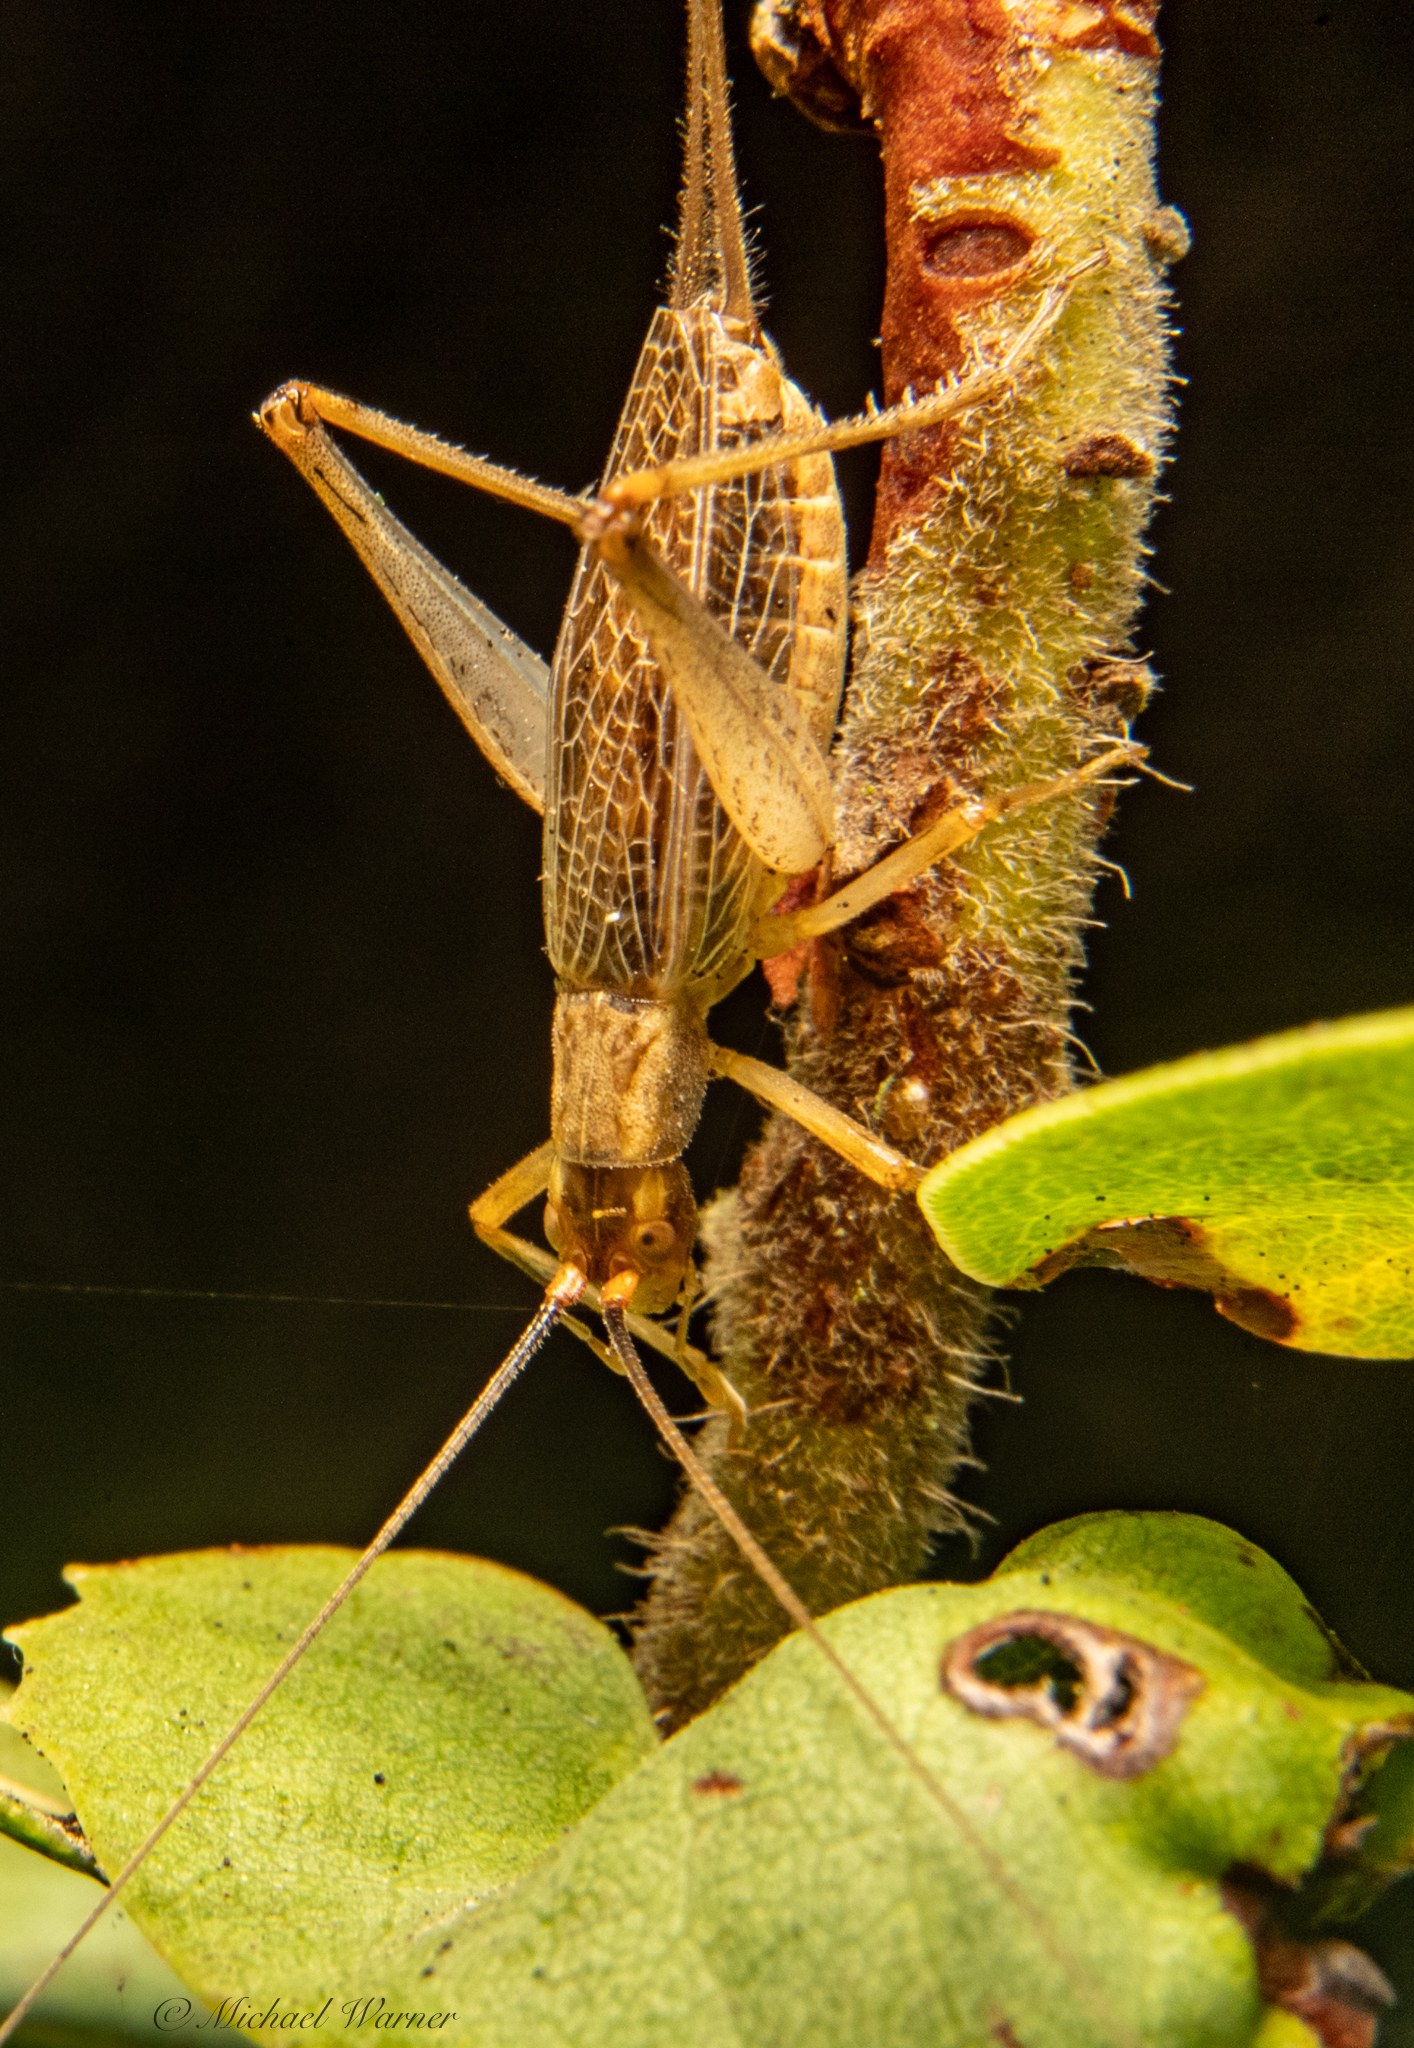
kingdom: Animalia
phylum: Arthropoda
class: Insecta
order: Orthoptera
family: Gryllidae
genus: Oecanthus
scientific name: Oecanthus californicus
